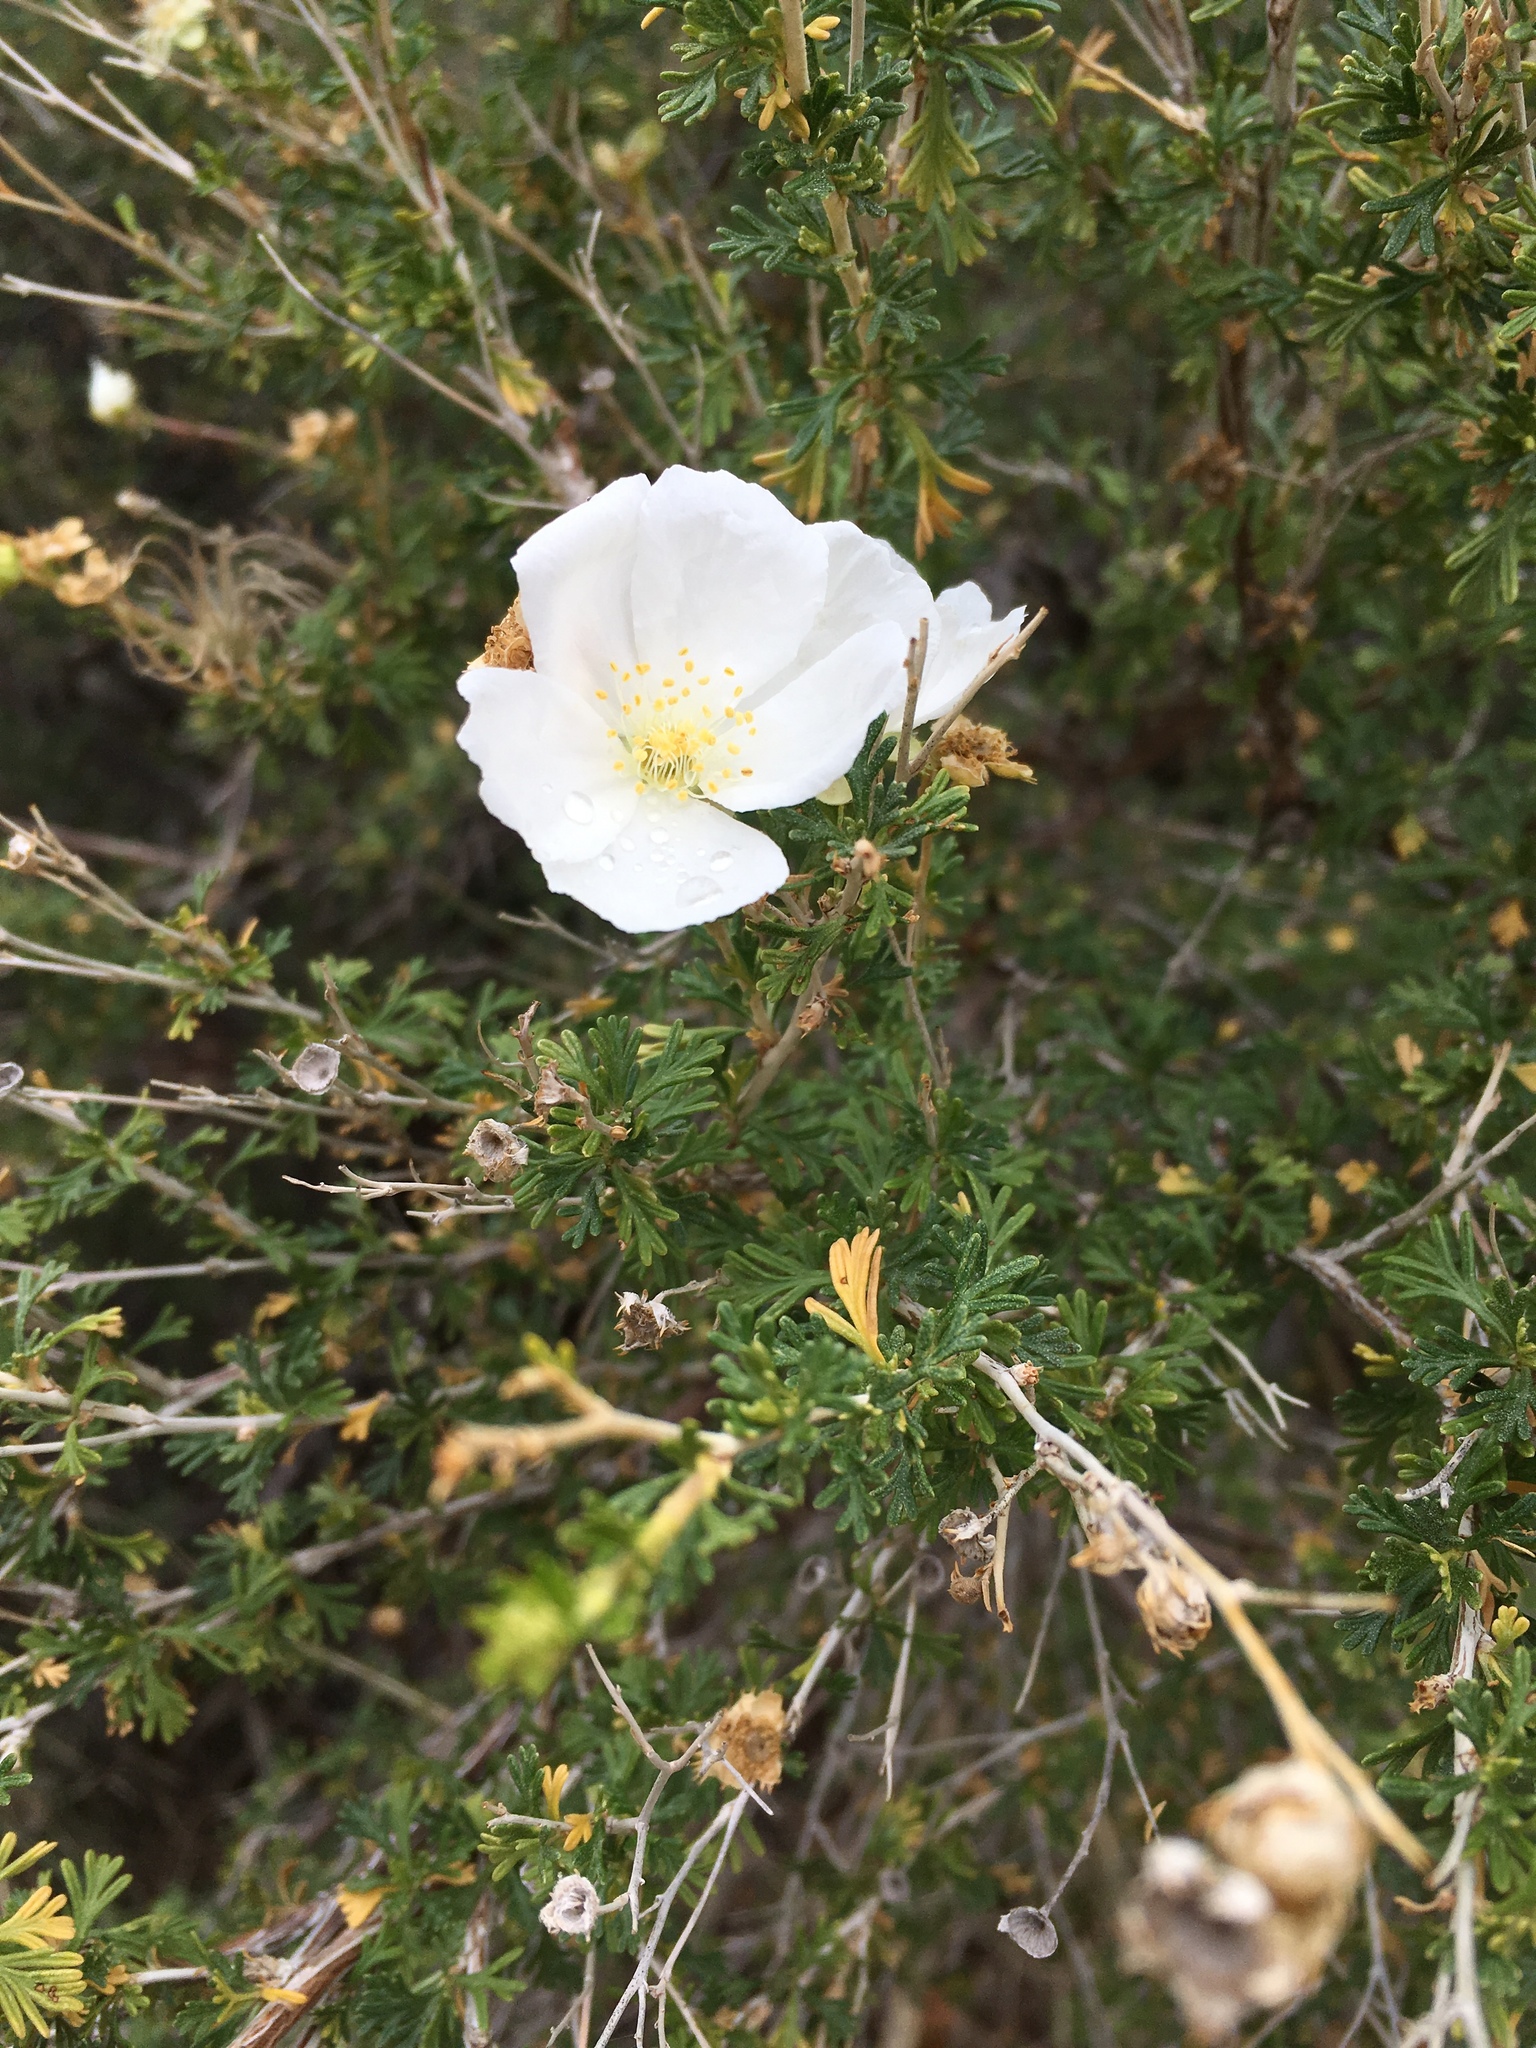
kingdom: Plantae
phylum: Tracheophyta
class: Magnoliopsida
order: Rosales
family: Rosaceae
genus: Fallugia
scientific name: Fallugia paradoxa
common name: Apache-plume
